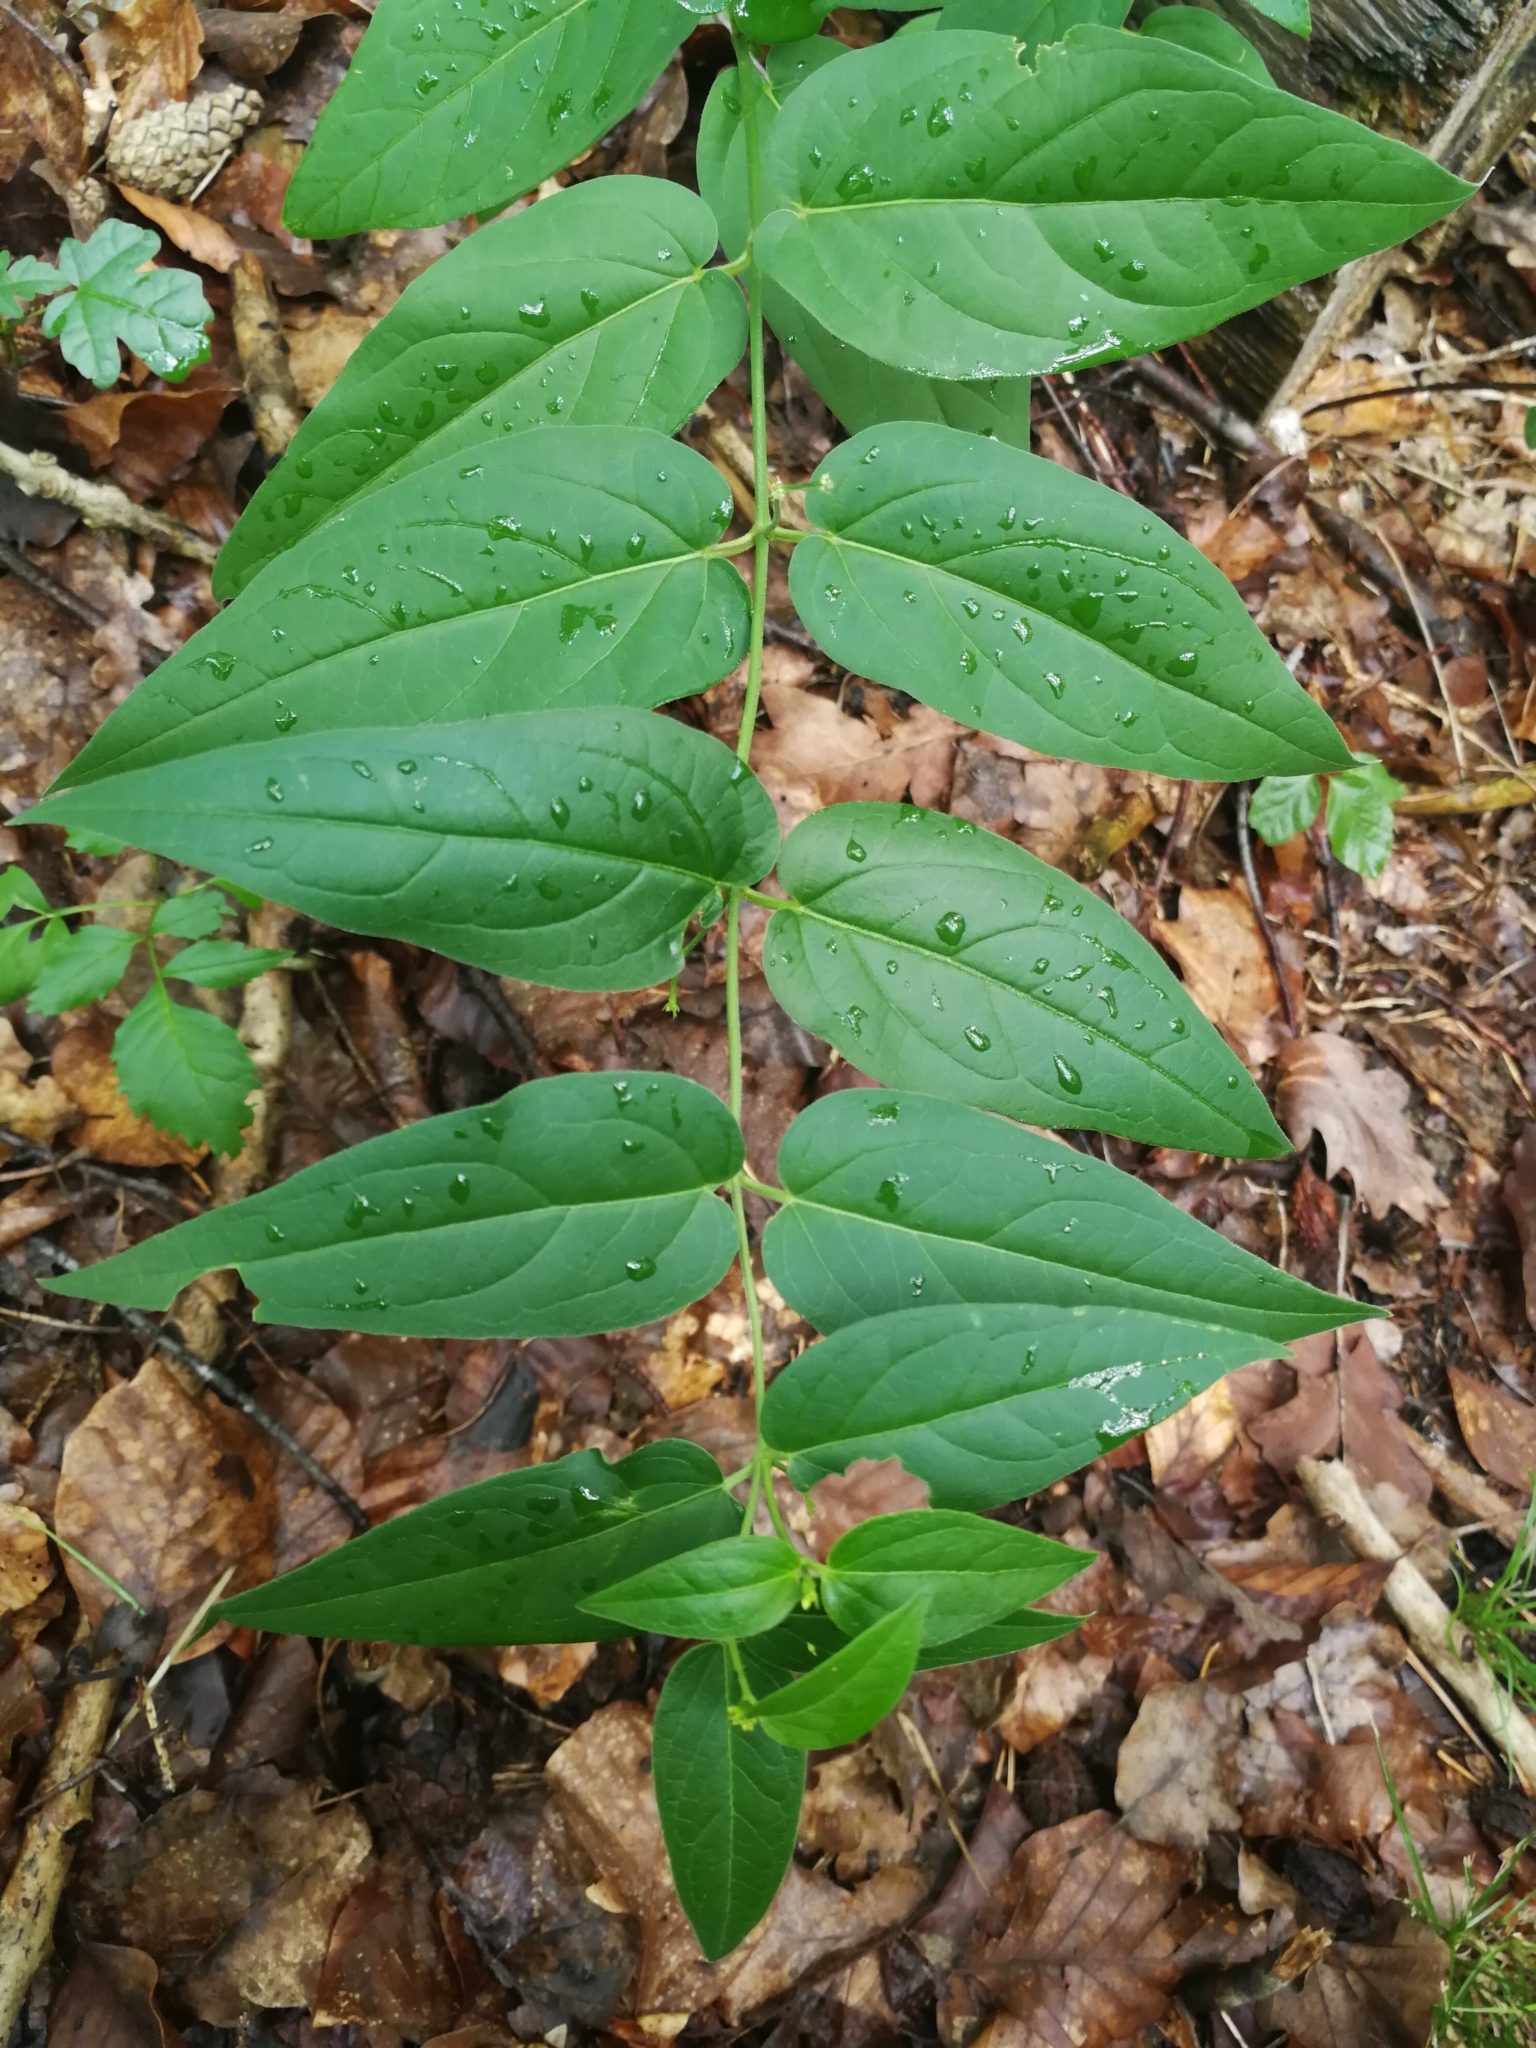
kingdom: Plantae
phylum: Tracheophyta
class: Magnoliopsida
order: Gentianales
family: Apocynaceae
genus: Vincetoxicum
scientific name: Vincetoxicum hirundinaria
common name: White swallowwort
